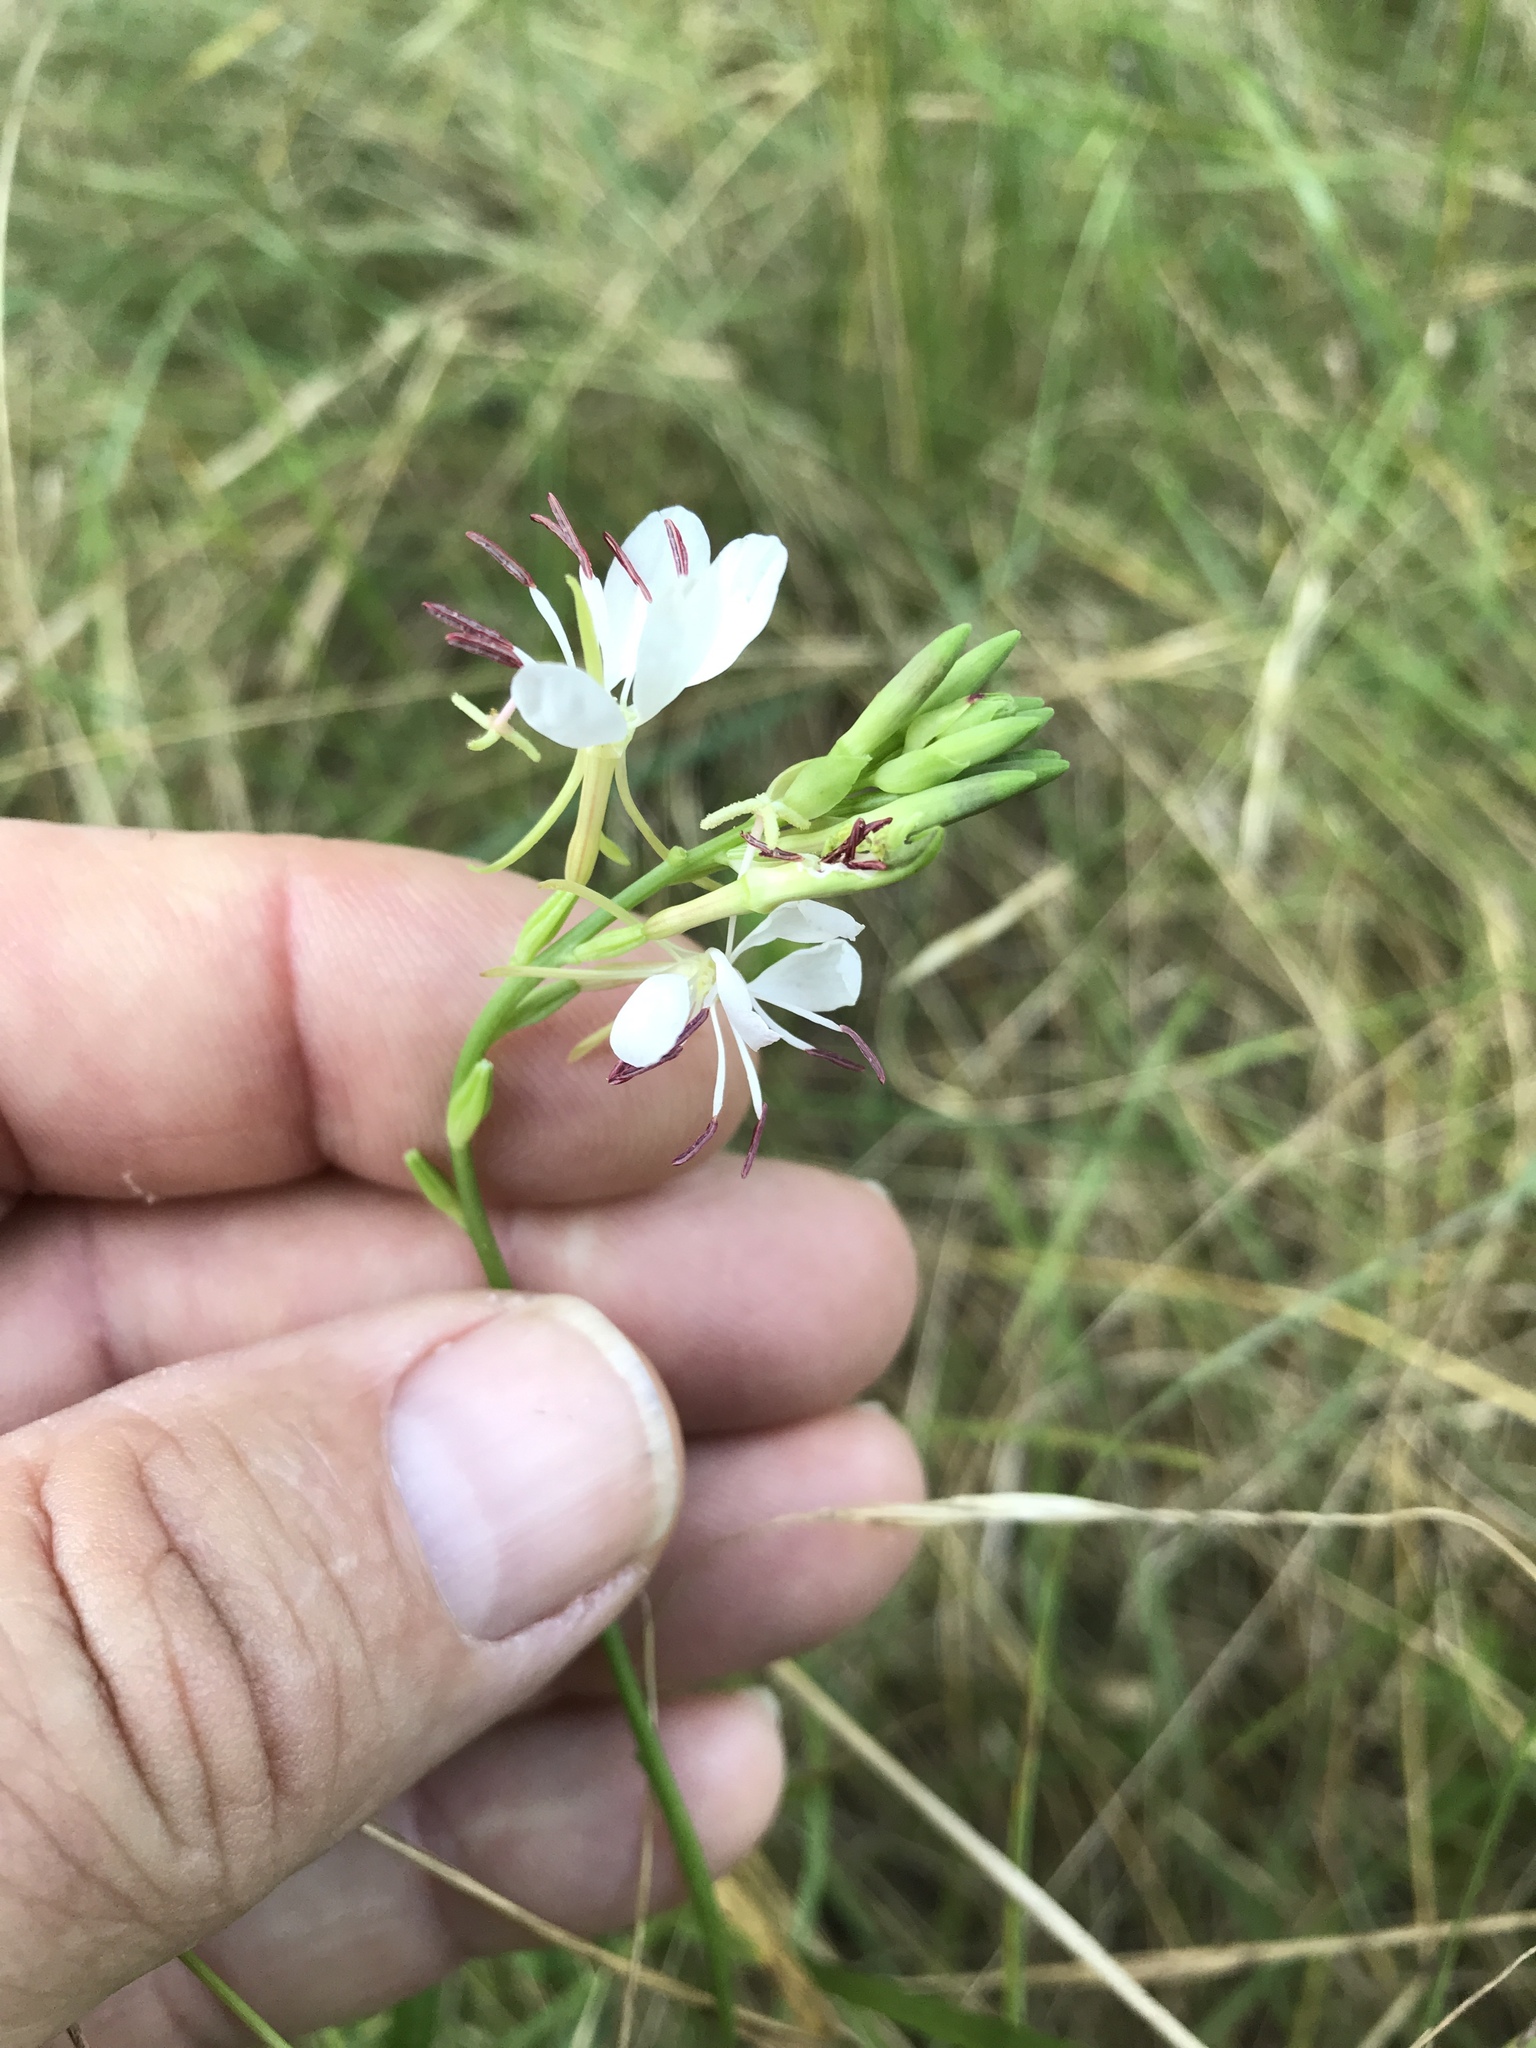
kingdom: Plantae
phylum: Tracheophyta
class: Magnoliopsida
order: Myrtales
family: Onagraceae
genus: Oenothera
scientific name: Oenothera suffulta
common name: Kisses
